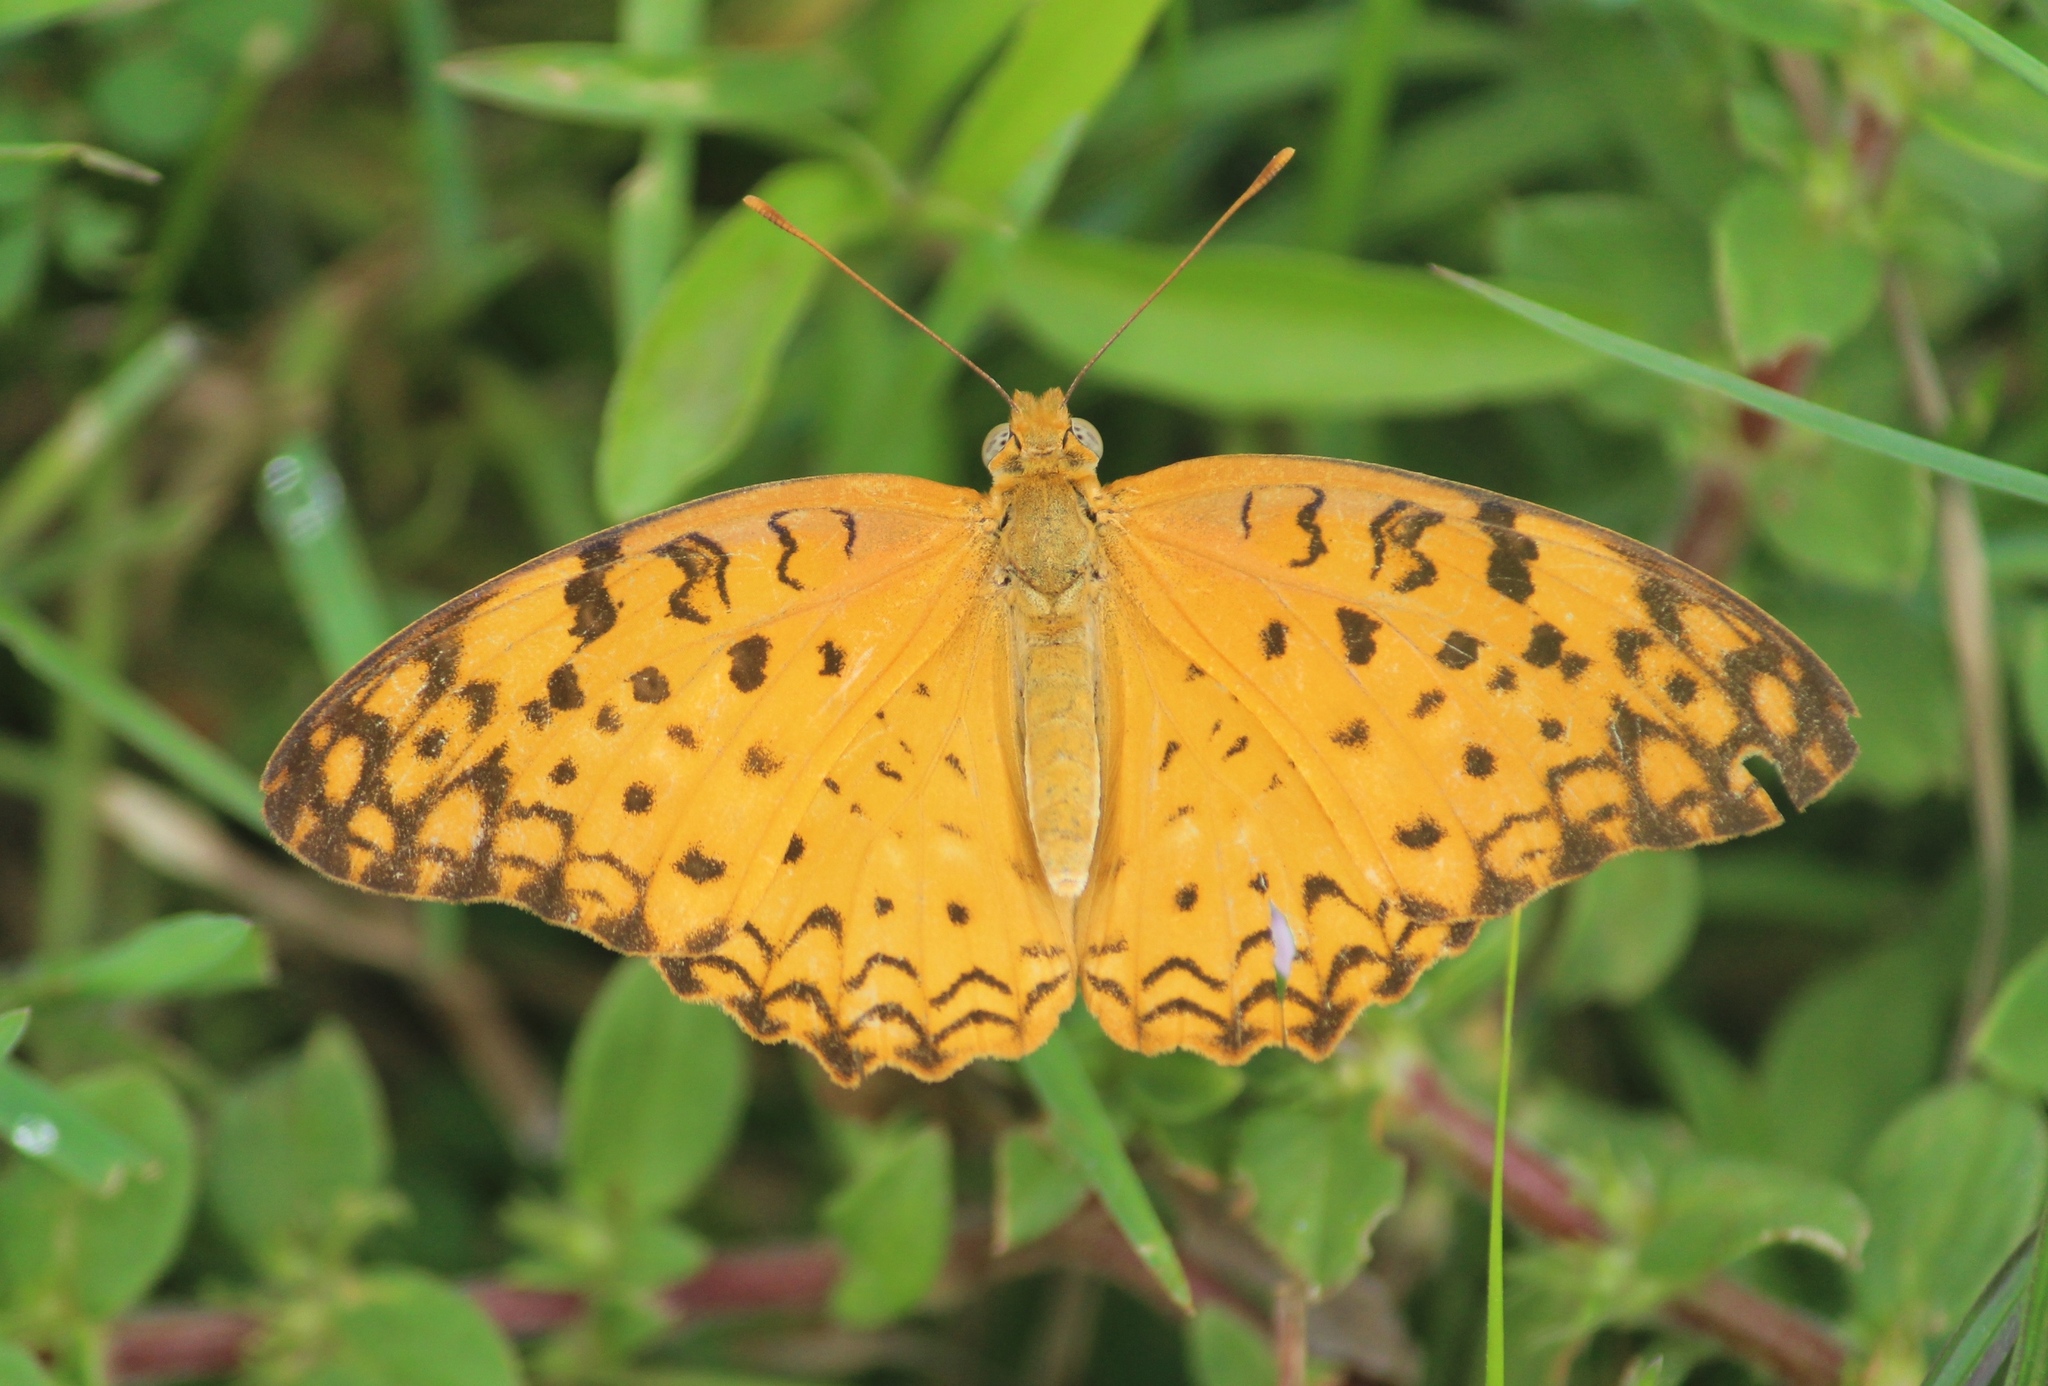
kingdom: Animalia
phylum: Arthropoda
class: Insecta
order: Lepidoptera
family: Nymphalidae
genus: Phalanta
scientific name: Phalanta phalantha
